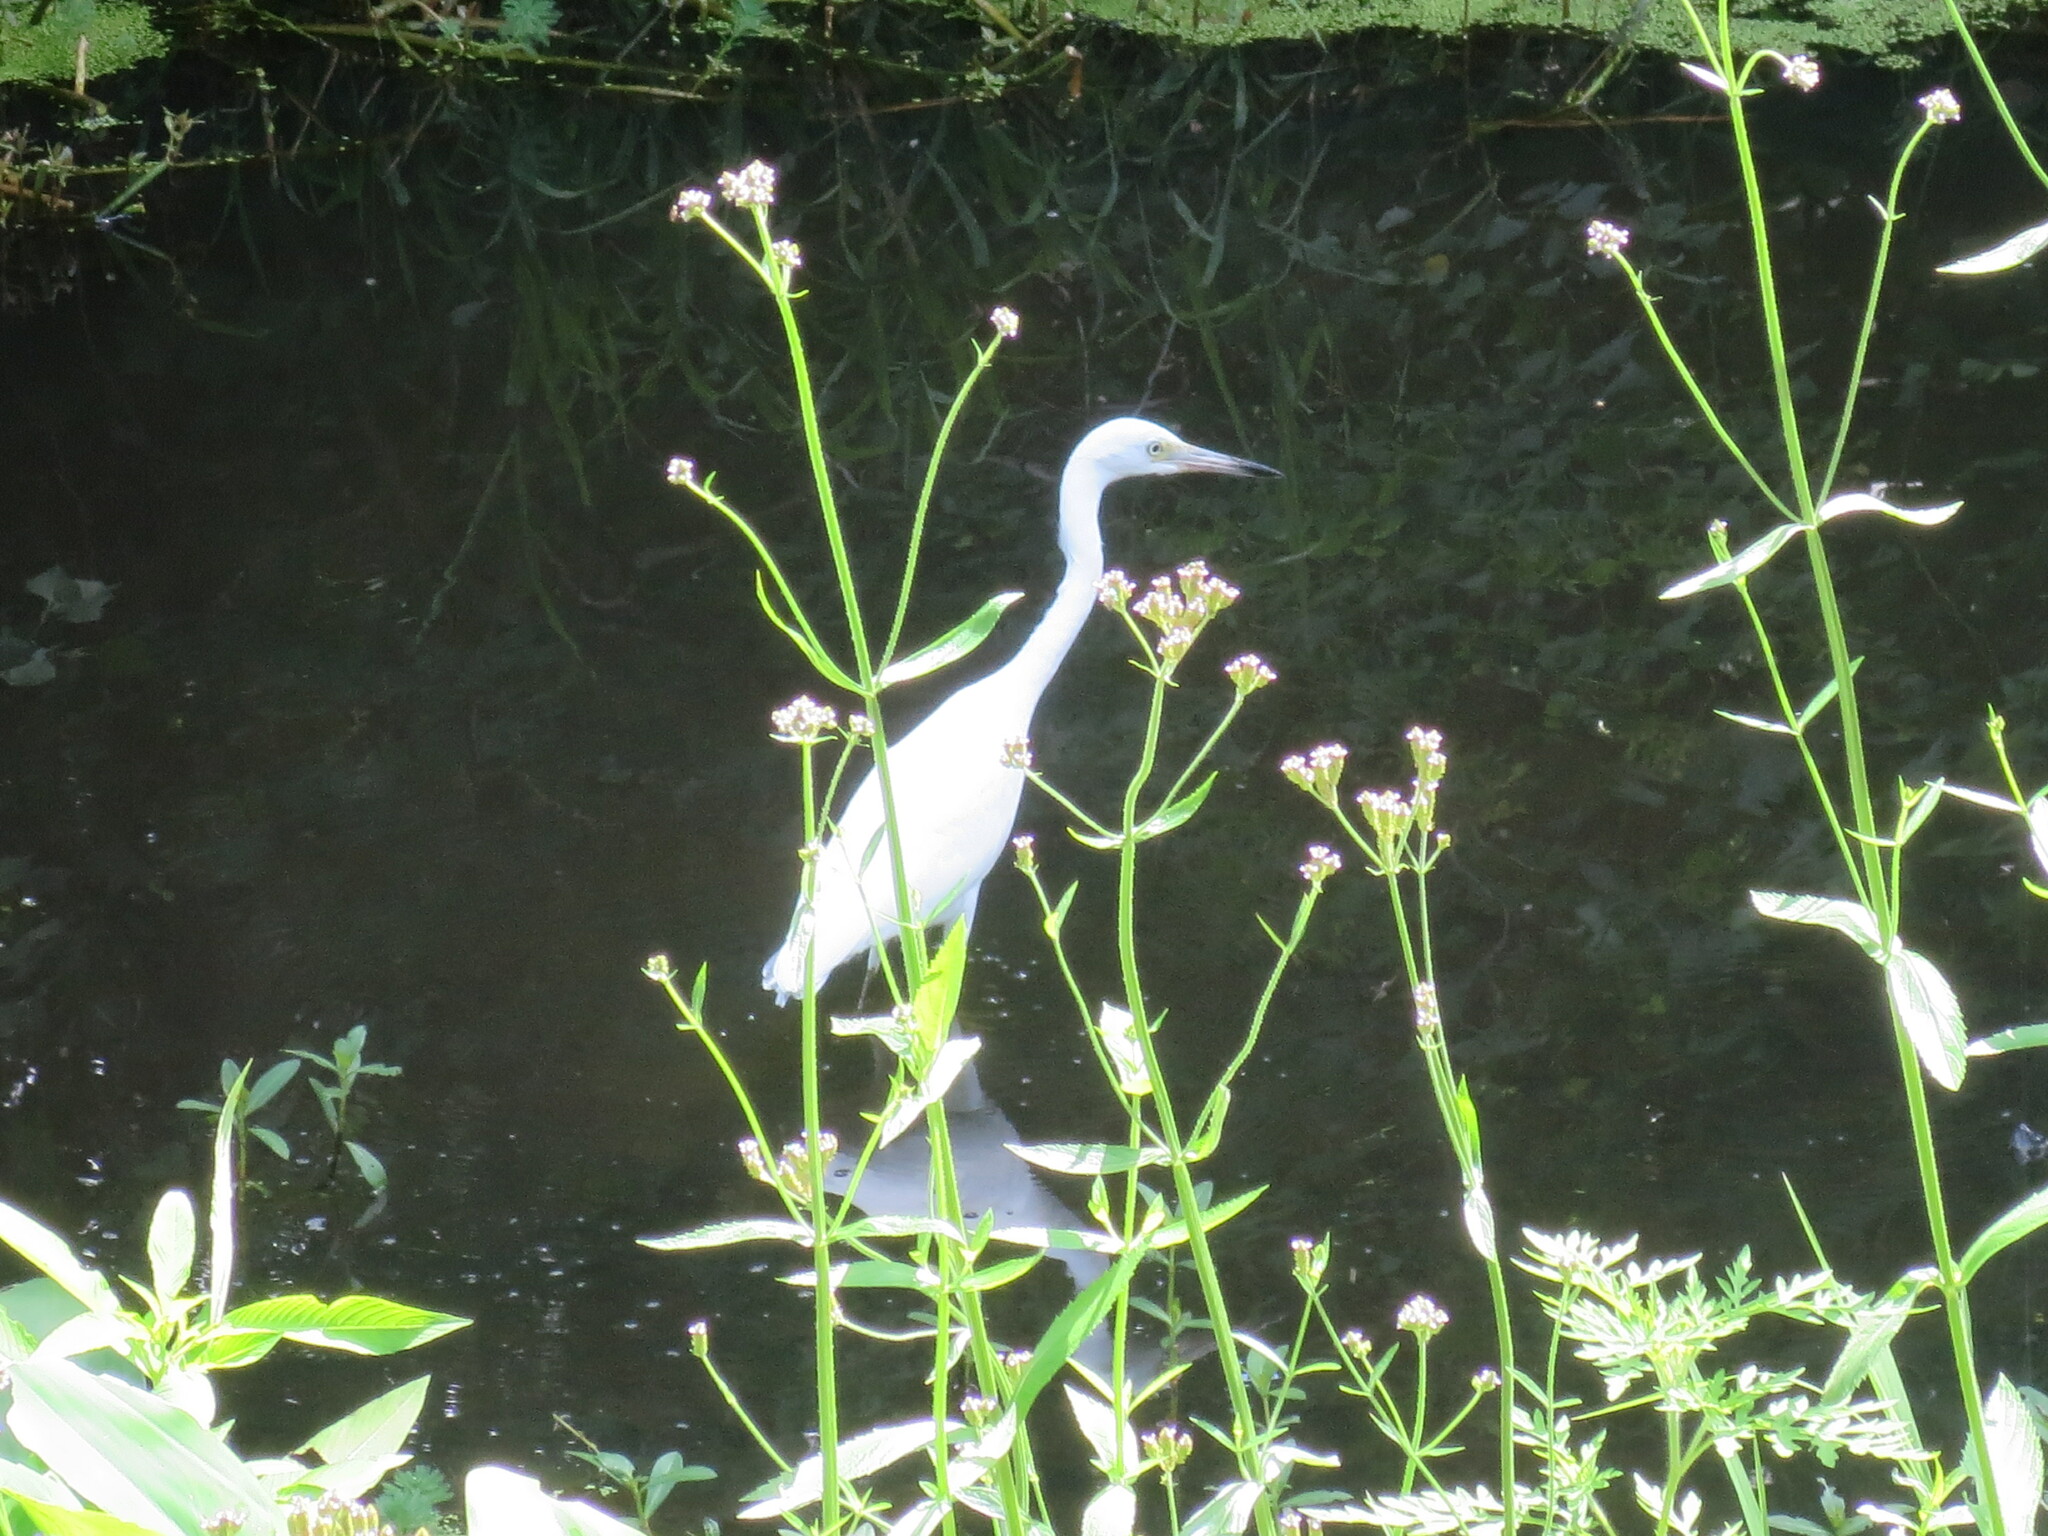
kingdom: Animalia
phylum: Chordata
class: Aves
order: Pelecaniformes
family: Ardeidae
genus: Egretta
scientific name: Egretta caerulea
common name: Little blue heron
